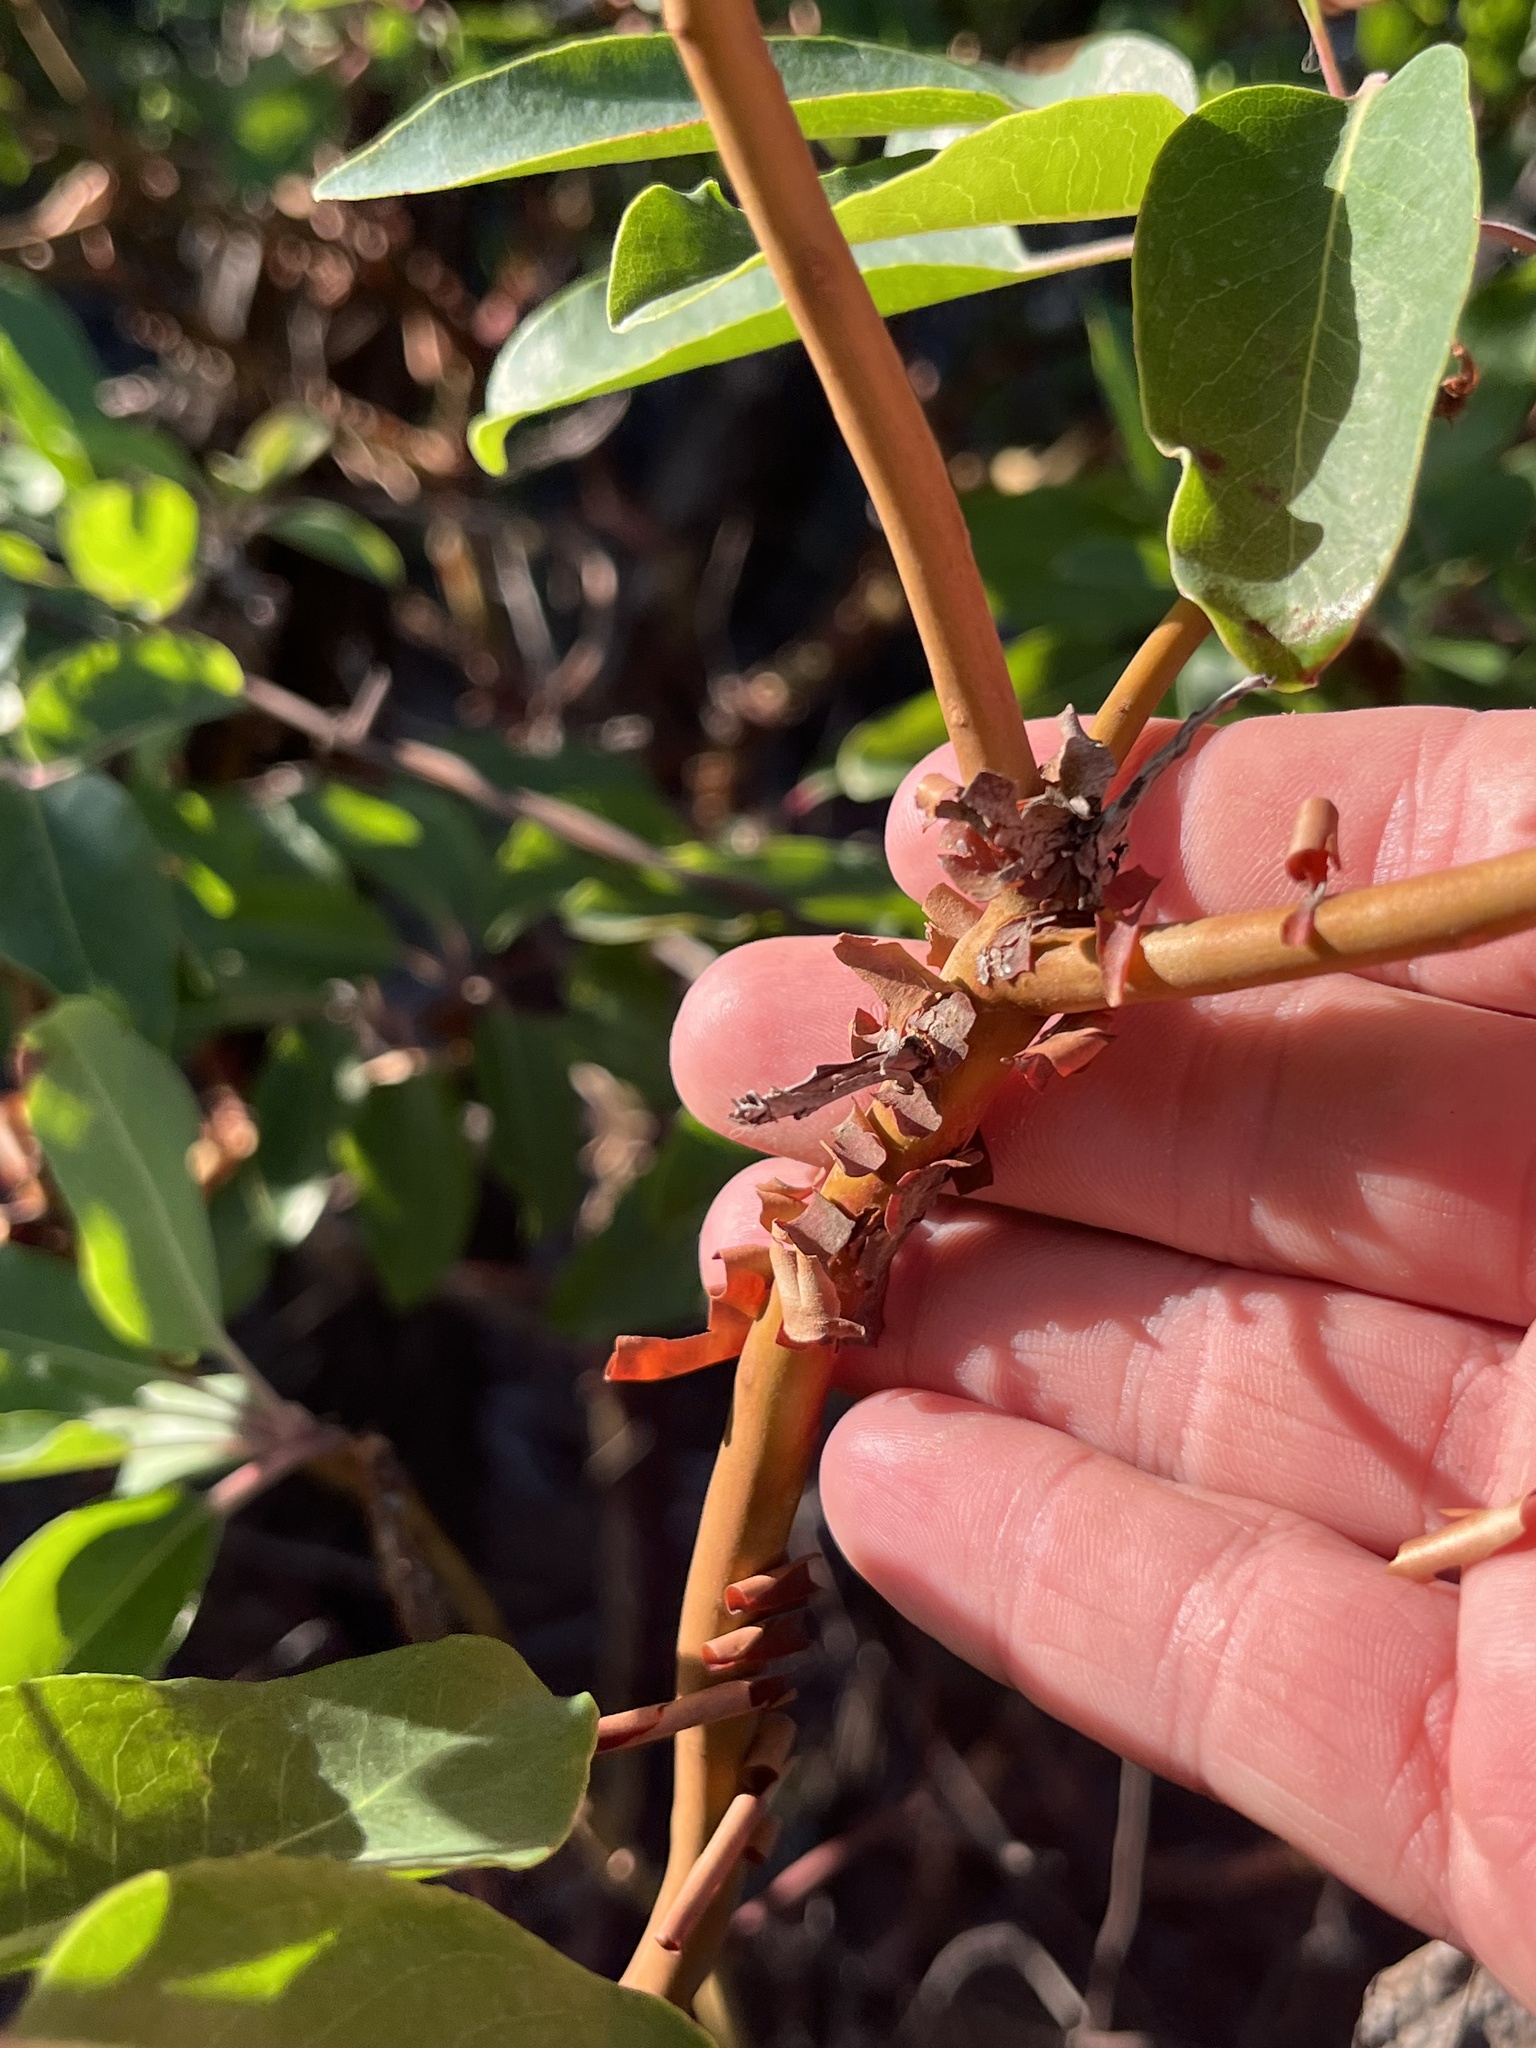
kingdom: Plantae
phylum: Tracheophyta
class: Magnoliopsida
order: Ericales
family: Ericaceae
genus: Arbutus
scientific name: Arbutus xalapensis
